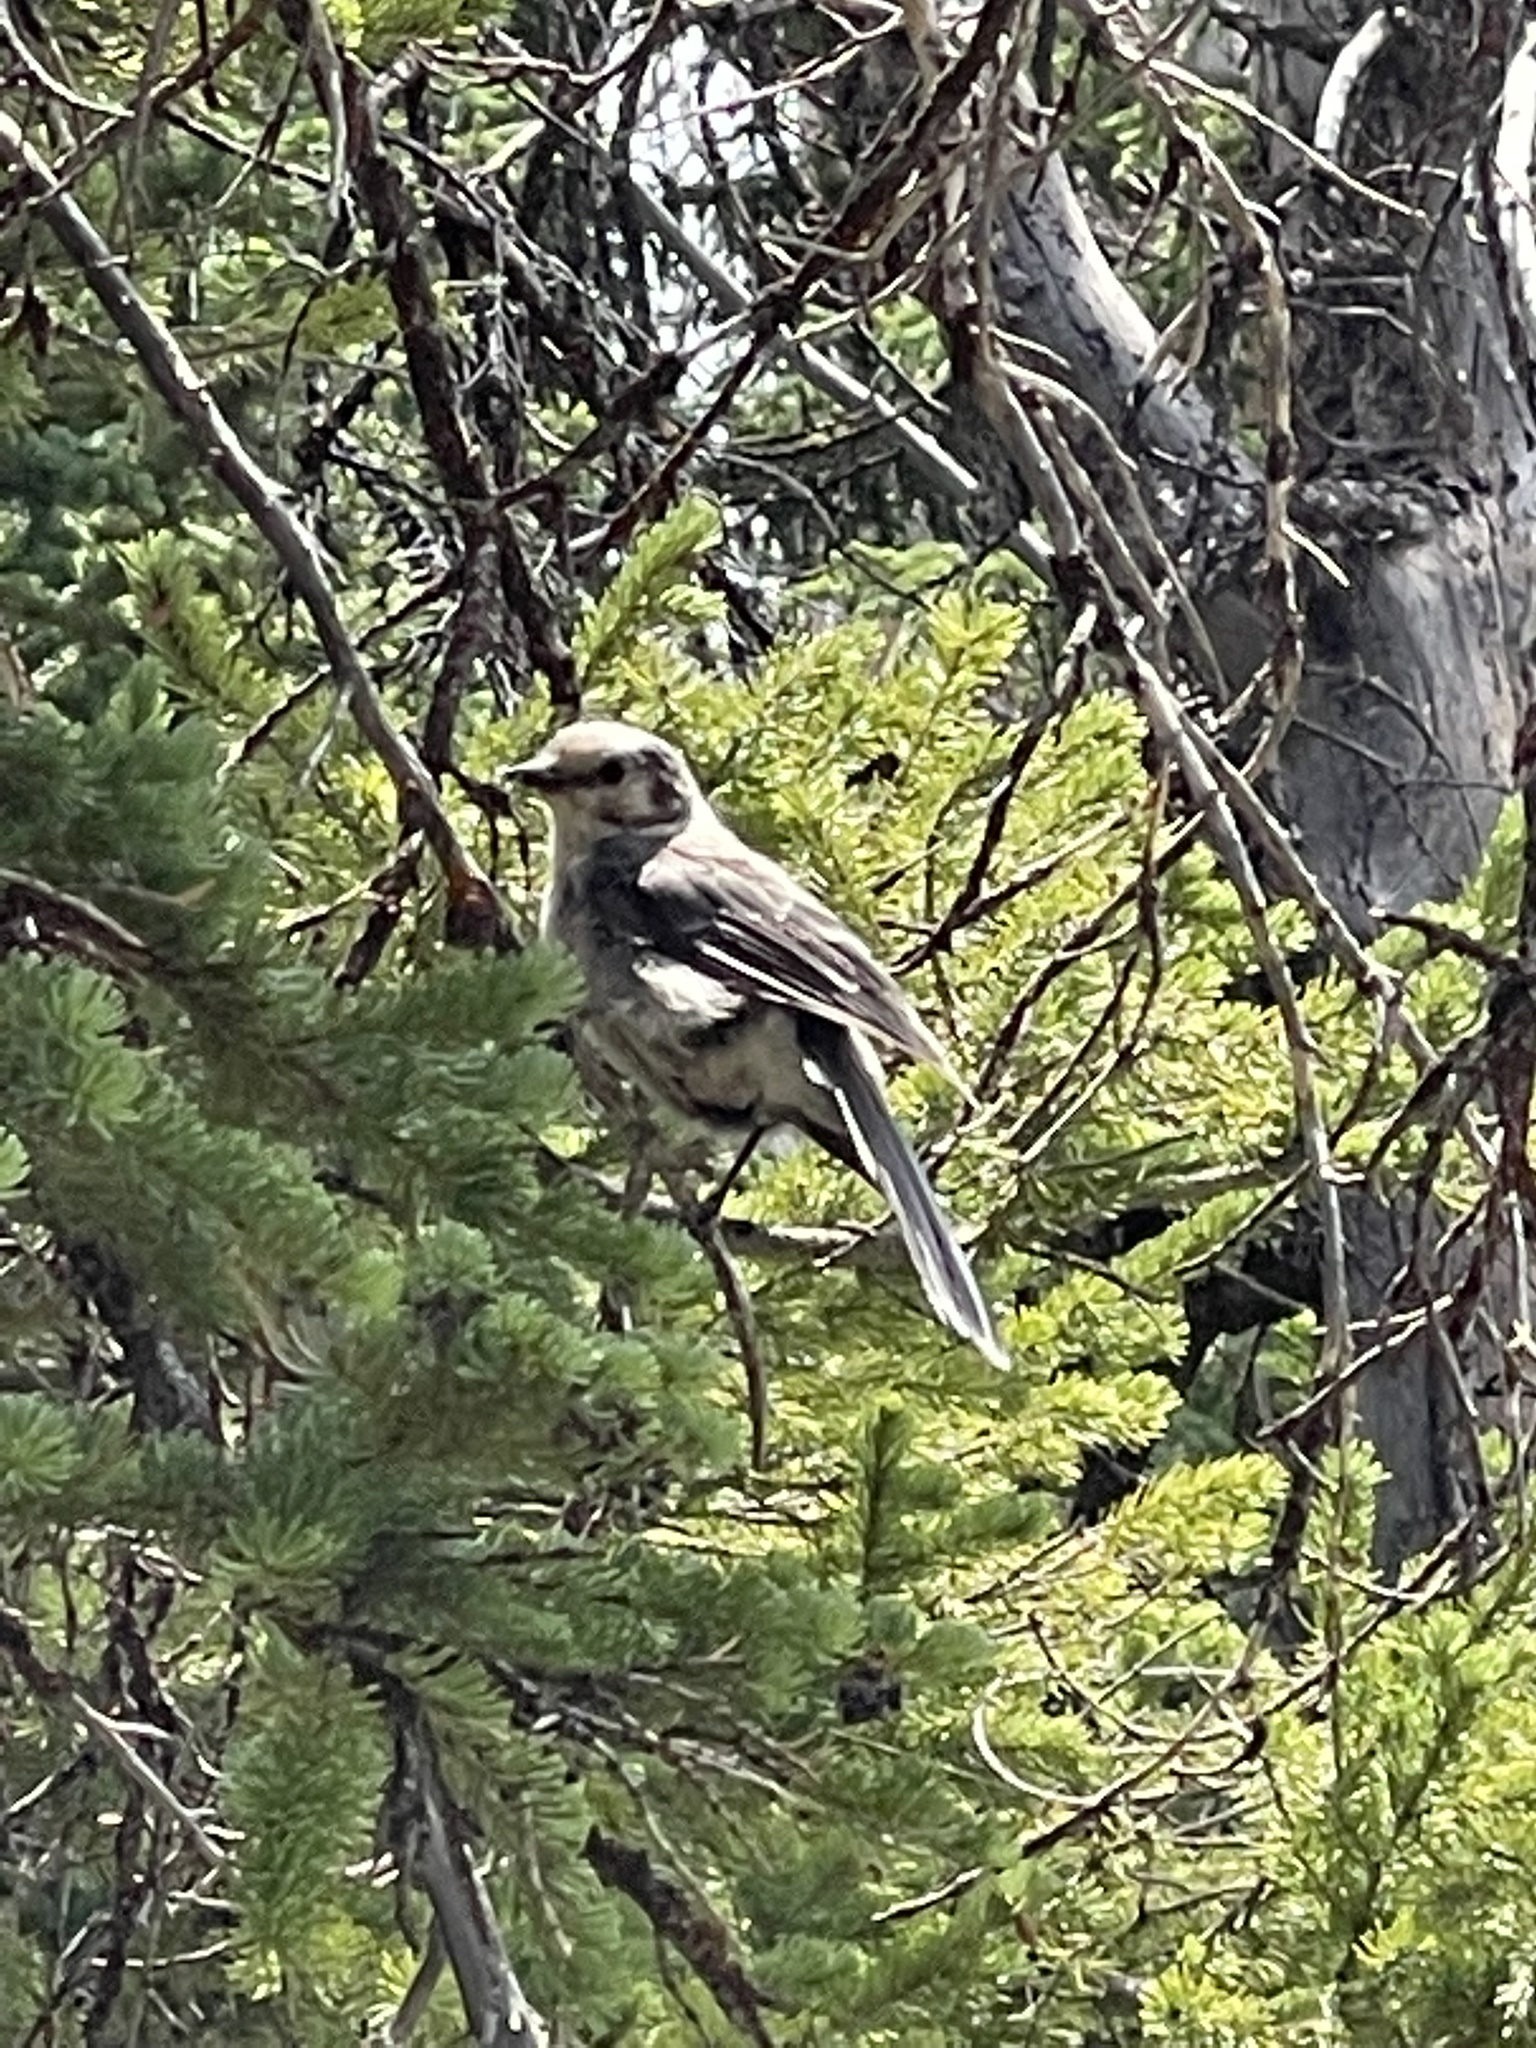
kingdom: Animalia
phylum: Chordata
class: Aves
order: Passeriformes
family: Corvidae
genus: Perisoreus
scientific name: Perisoreus canadensis
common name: Gray jay
